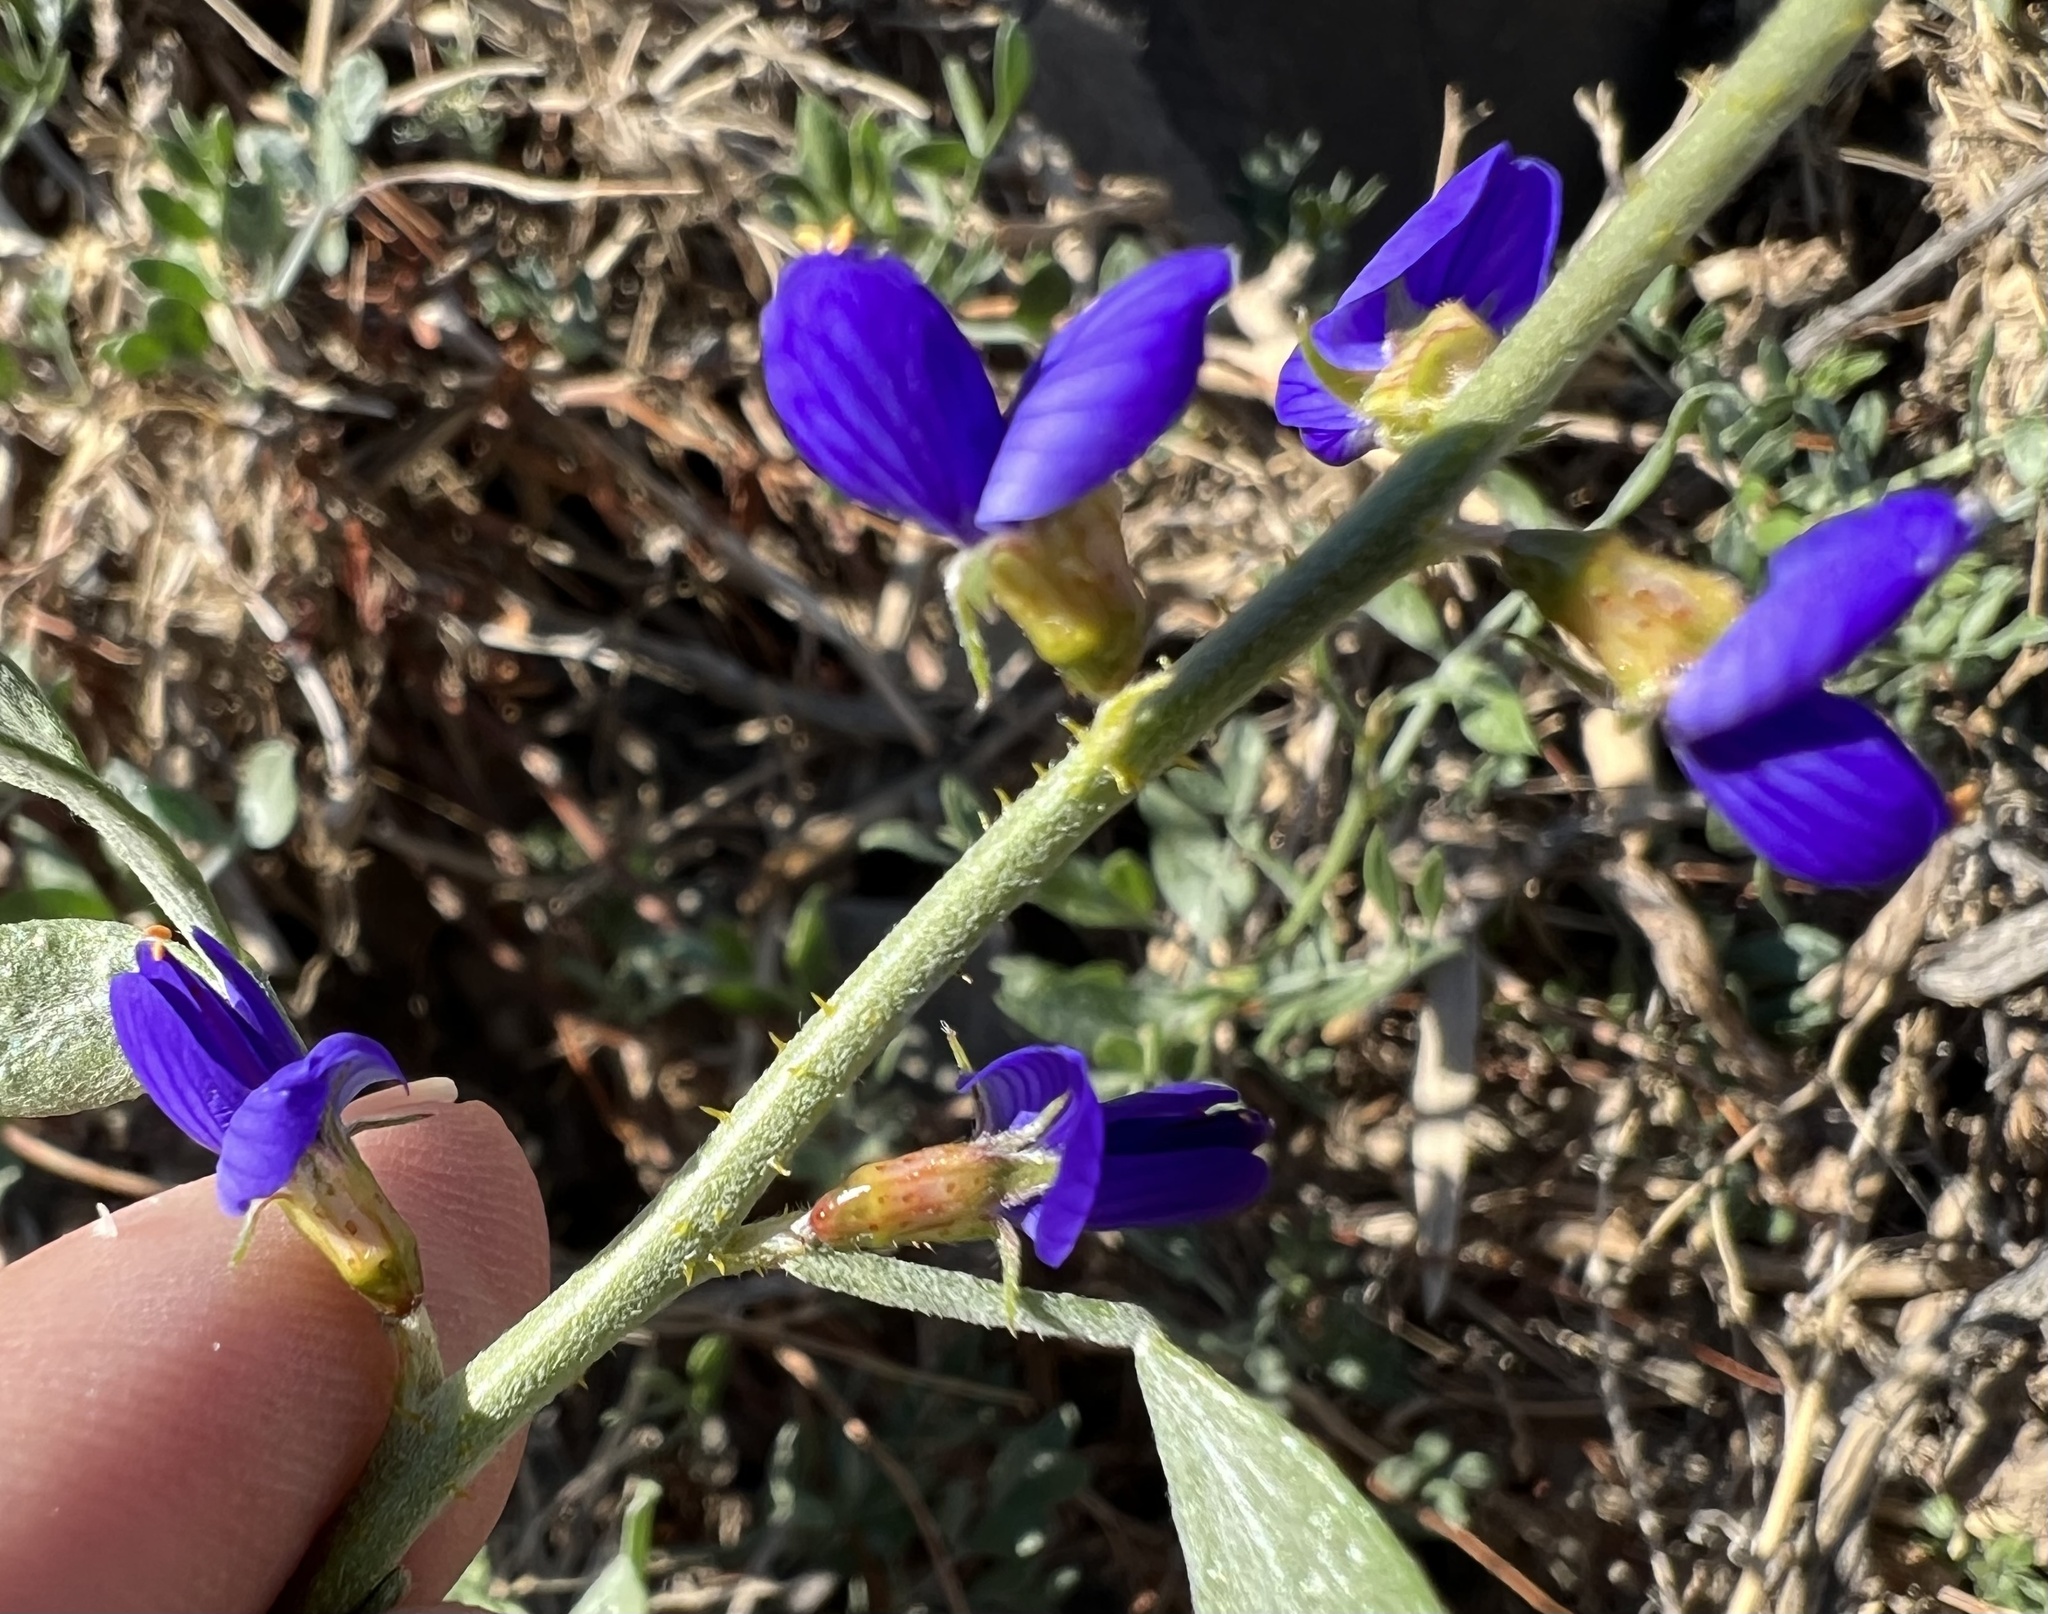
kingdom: Plantae
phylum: Tracheophyta
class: Magnoliopsida
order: Fabales
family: Fabaceae
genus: Psorothamnus
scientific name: Psorothamnus arborescens
